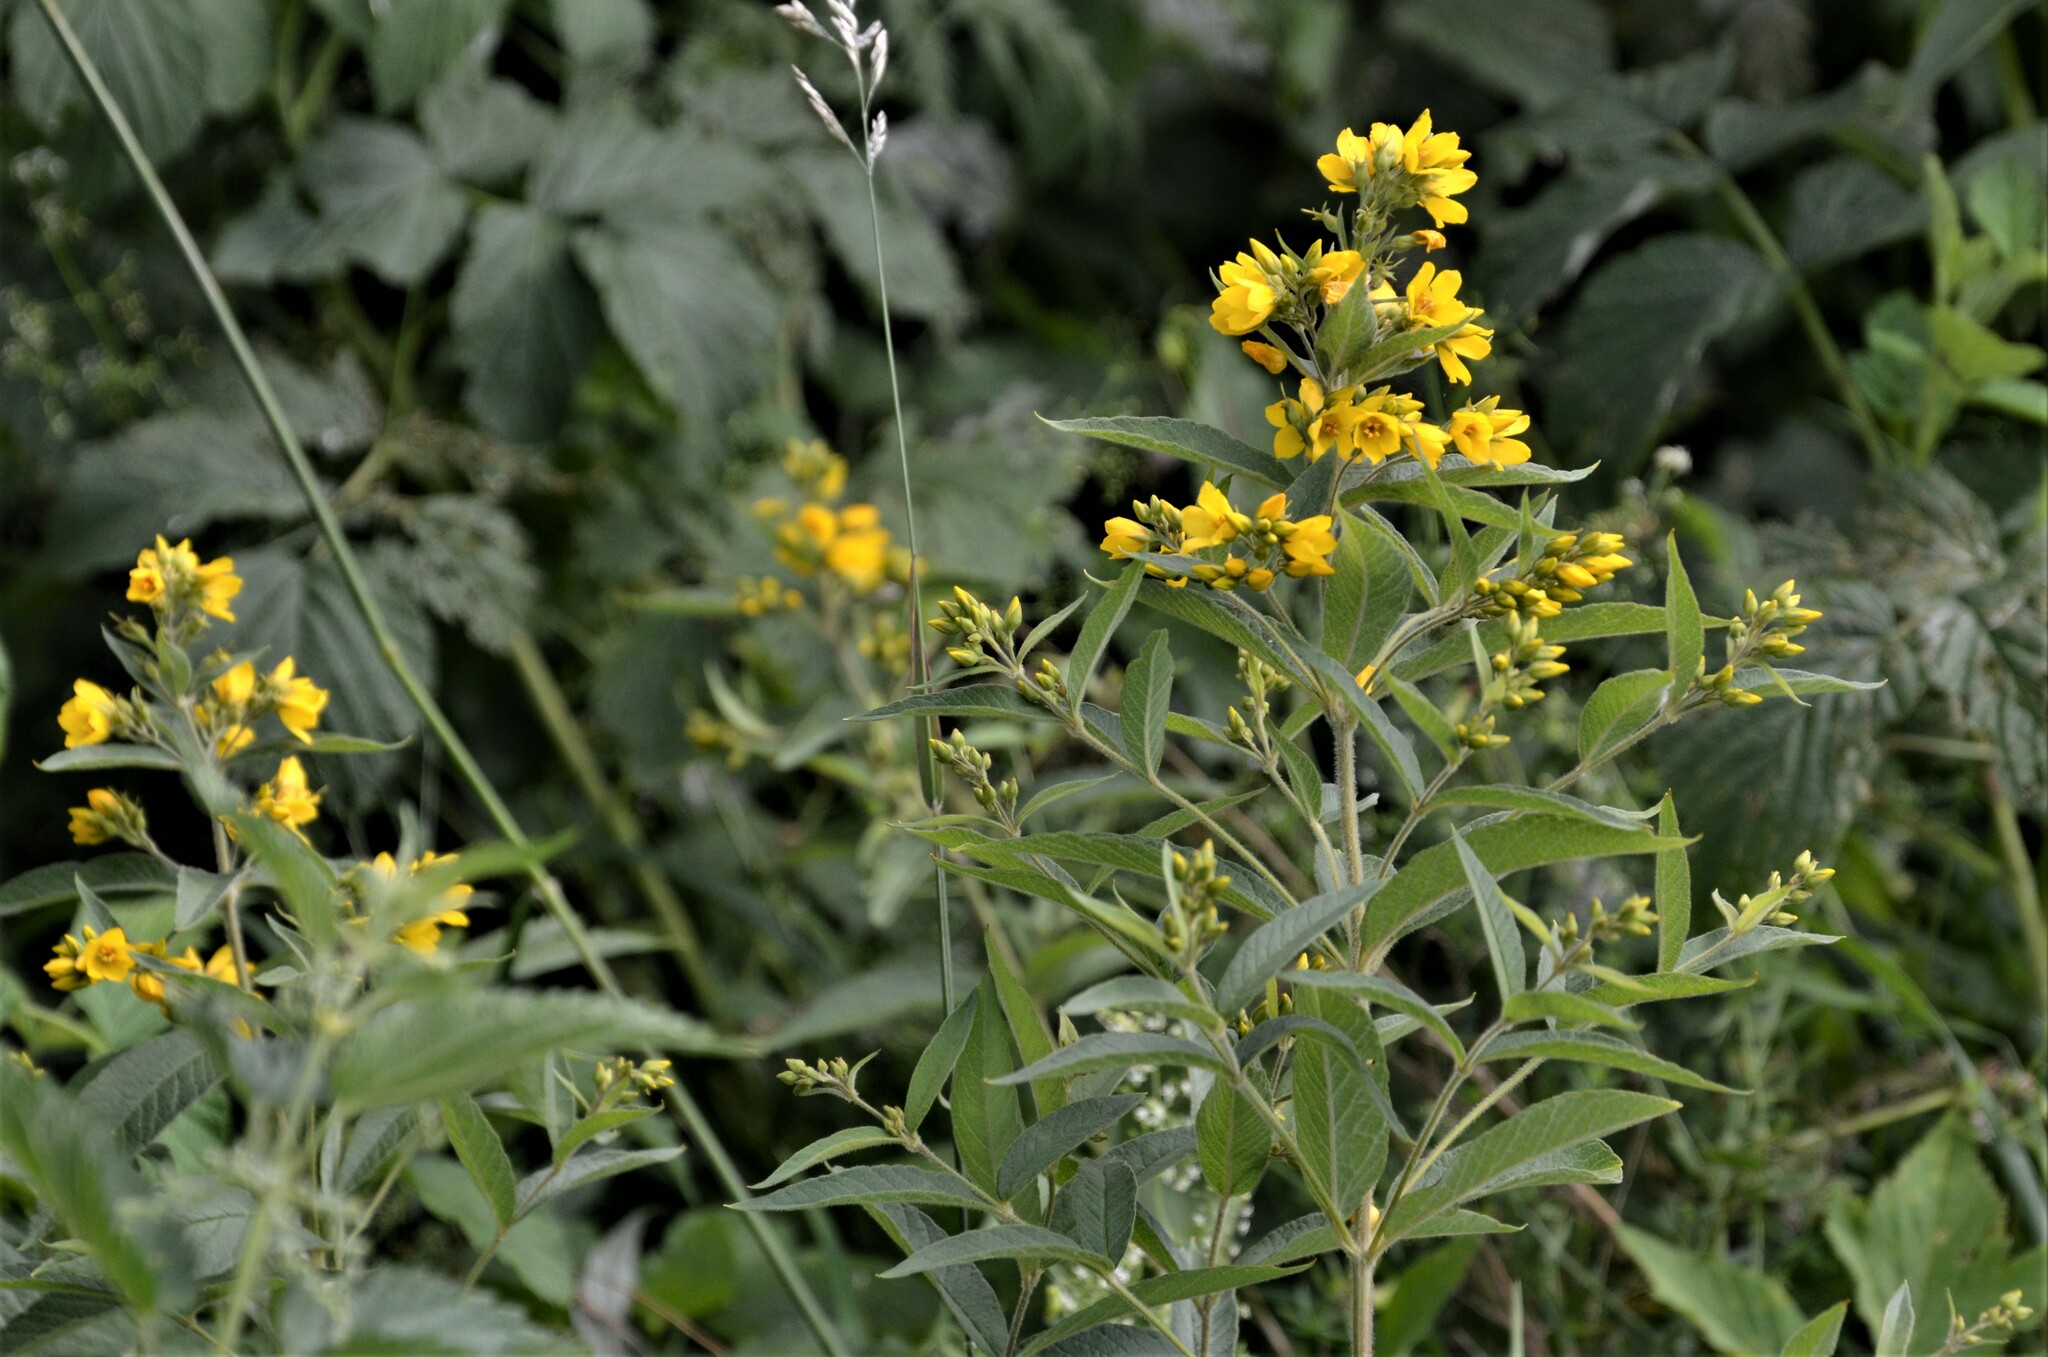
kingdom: Plantae
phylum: Tracheophyta
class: Magnoliopsida
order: Ericales
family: Primulaceae
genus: Lysimachia
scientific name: Lysimachia vulgaris
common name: Yellow loosestrife
